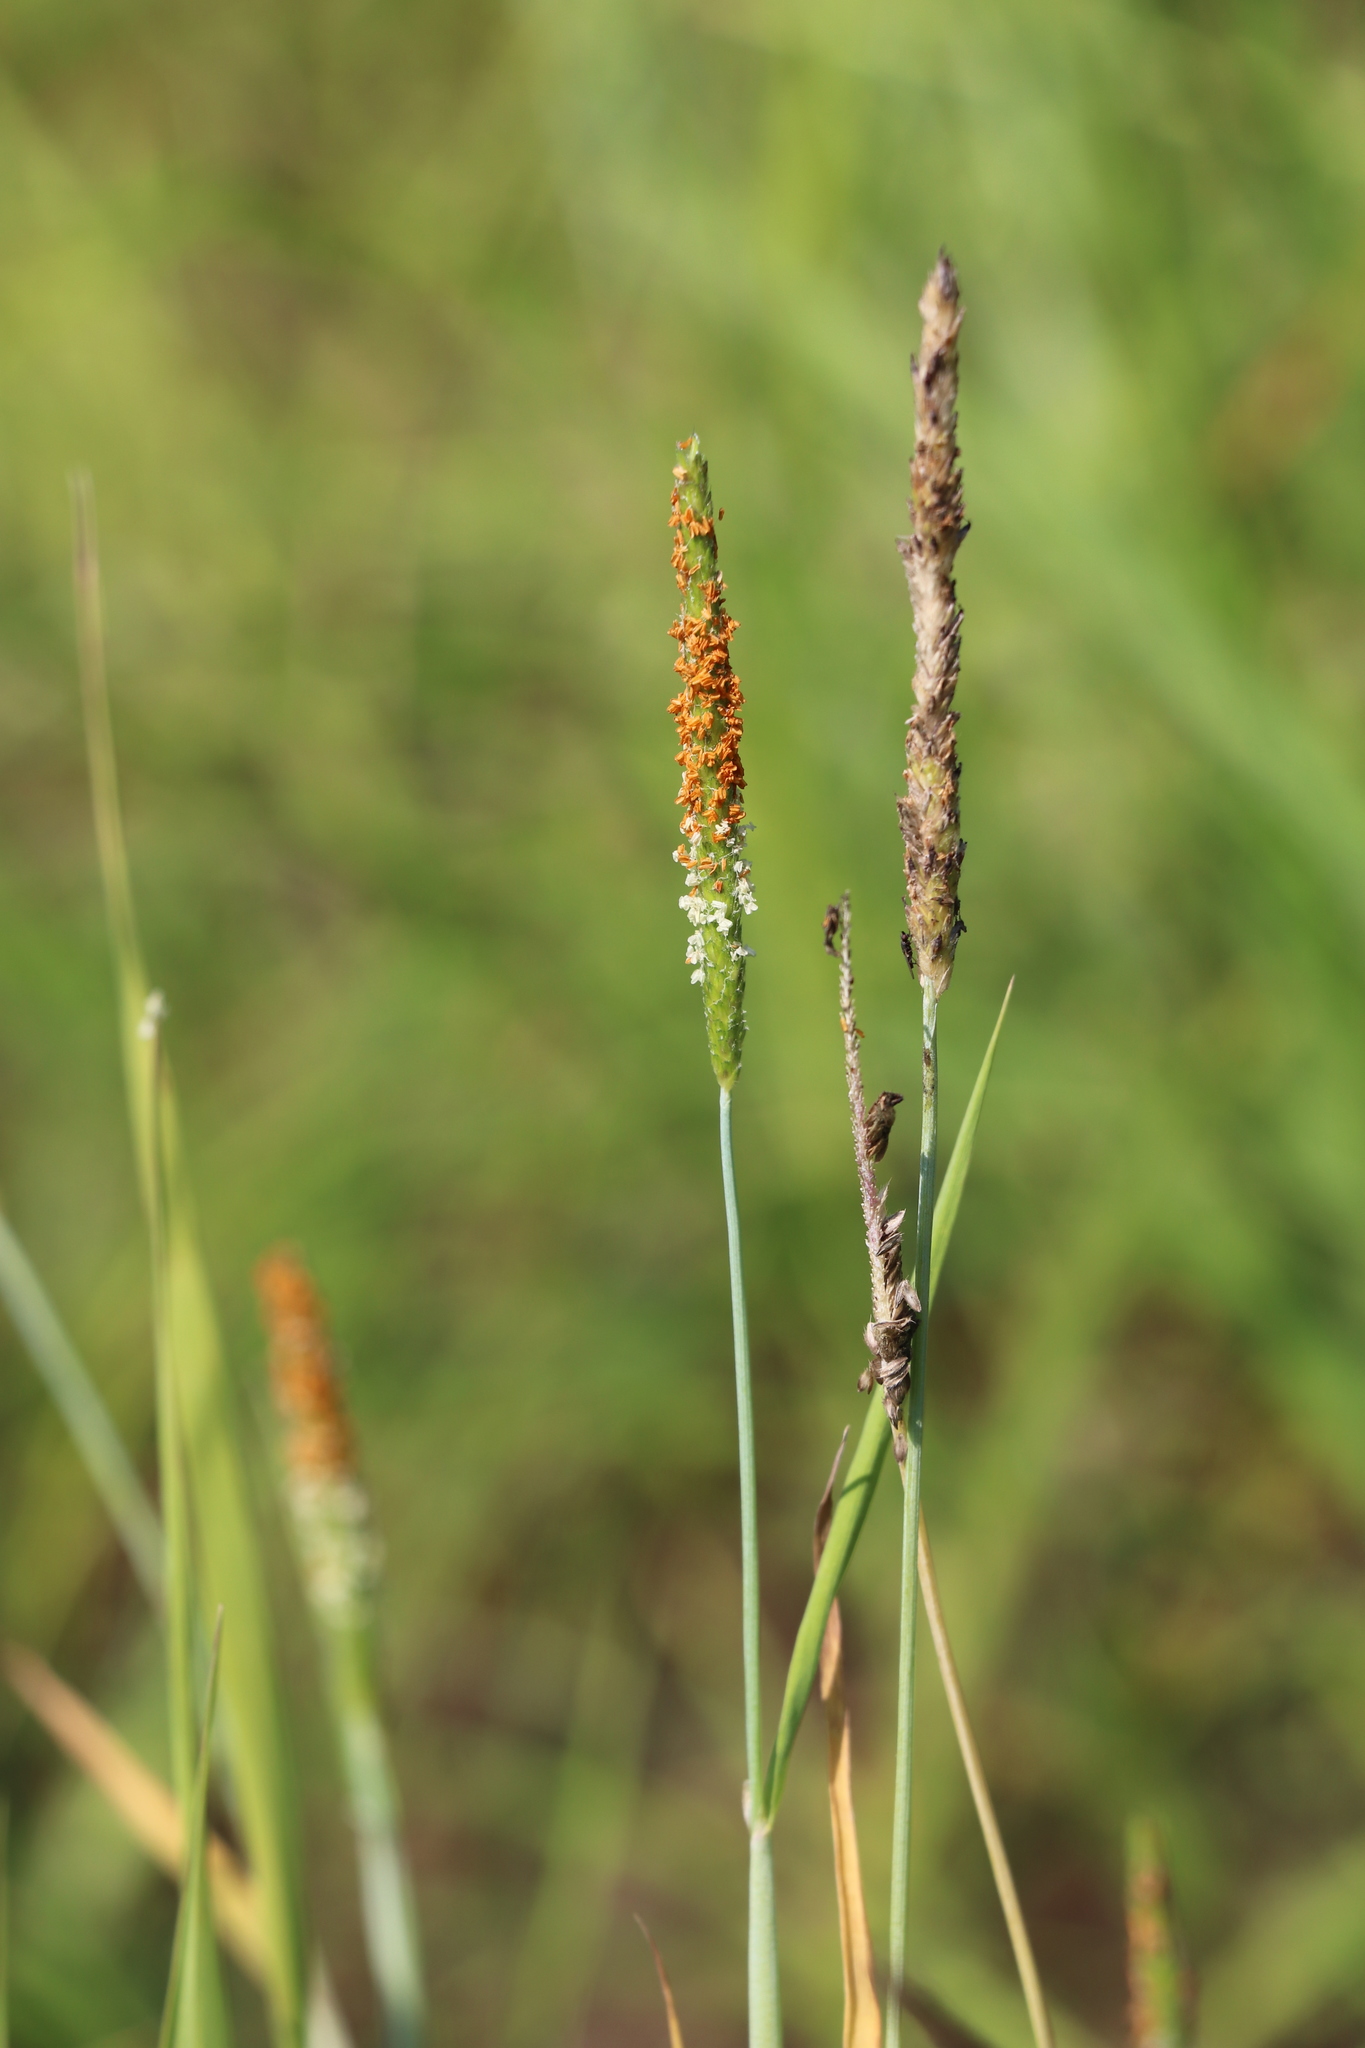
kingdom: Plantae
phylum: Tracheophyta
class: Liliopsida
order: Poales
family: Poaceae
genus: Alopecurus
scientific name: Alopecurus aequalis
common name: Orange foxtail
